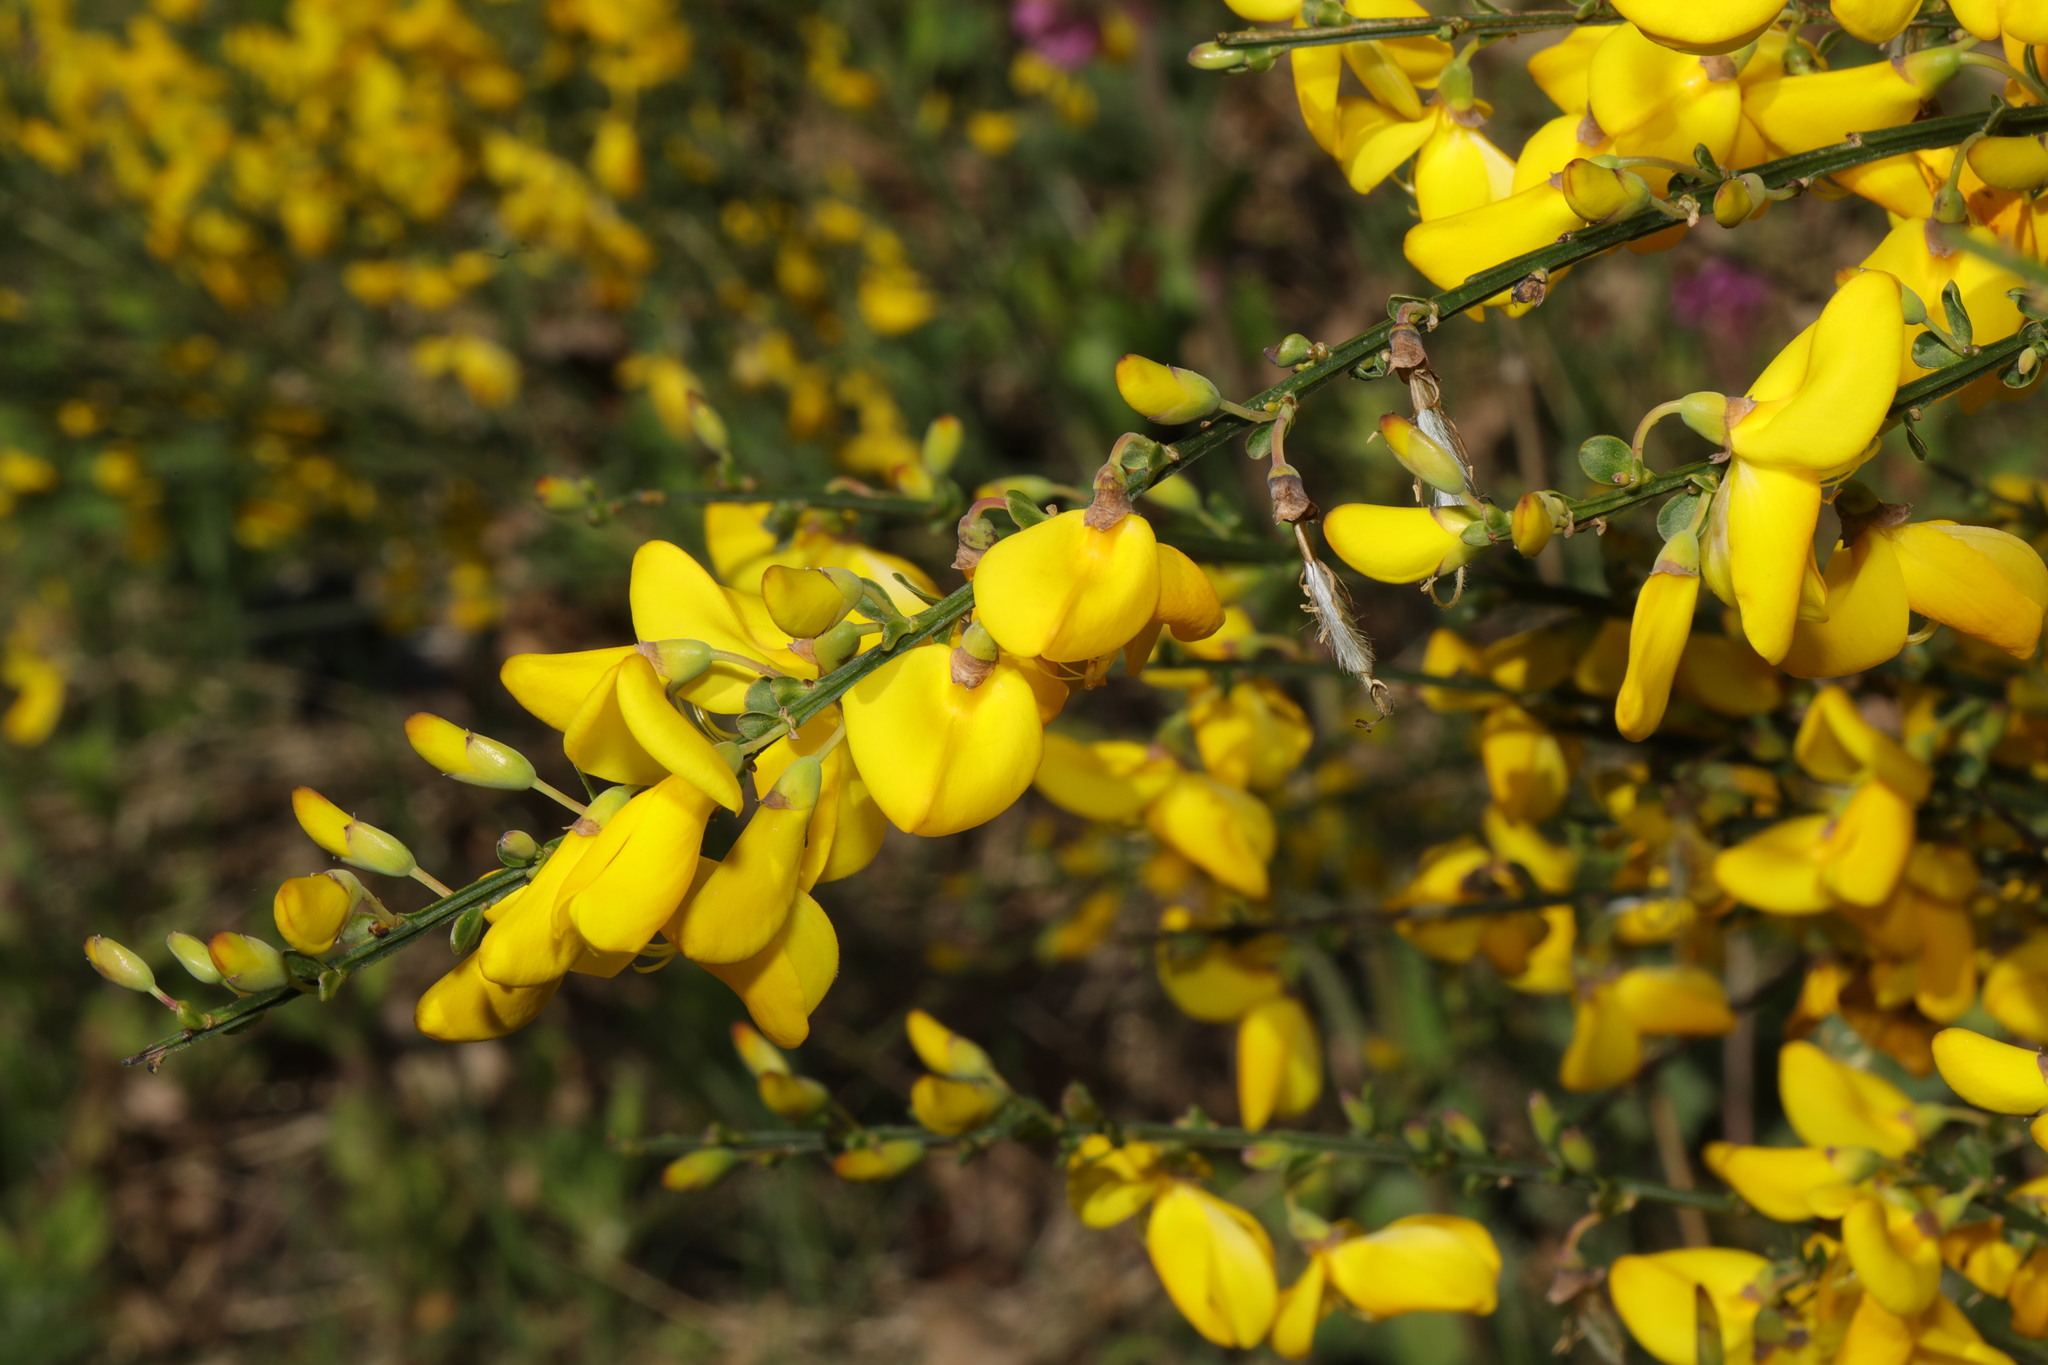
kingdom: Plantae
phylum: Tracheophyta
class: Magnoliopsida
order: Fabales
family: Fabaceae
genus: Cytisus
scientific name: Cytisus scoparius
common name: Scotch broom
